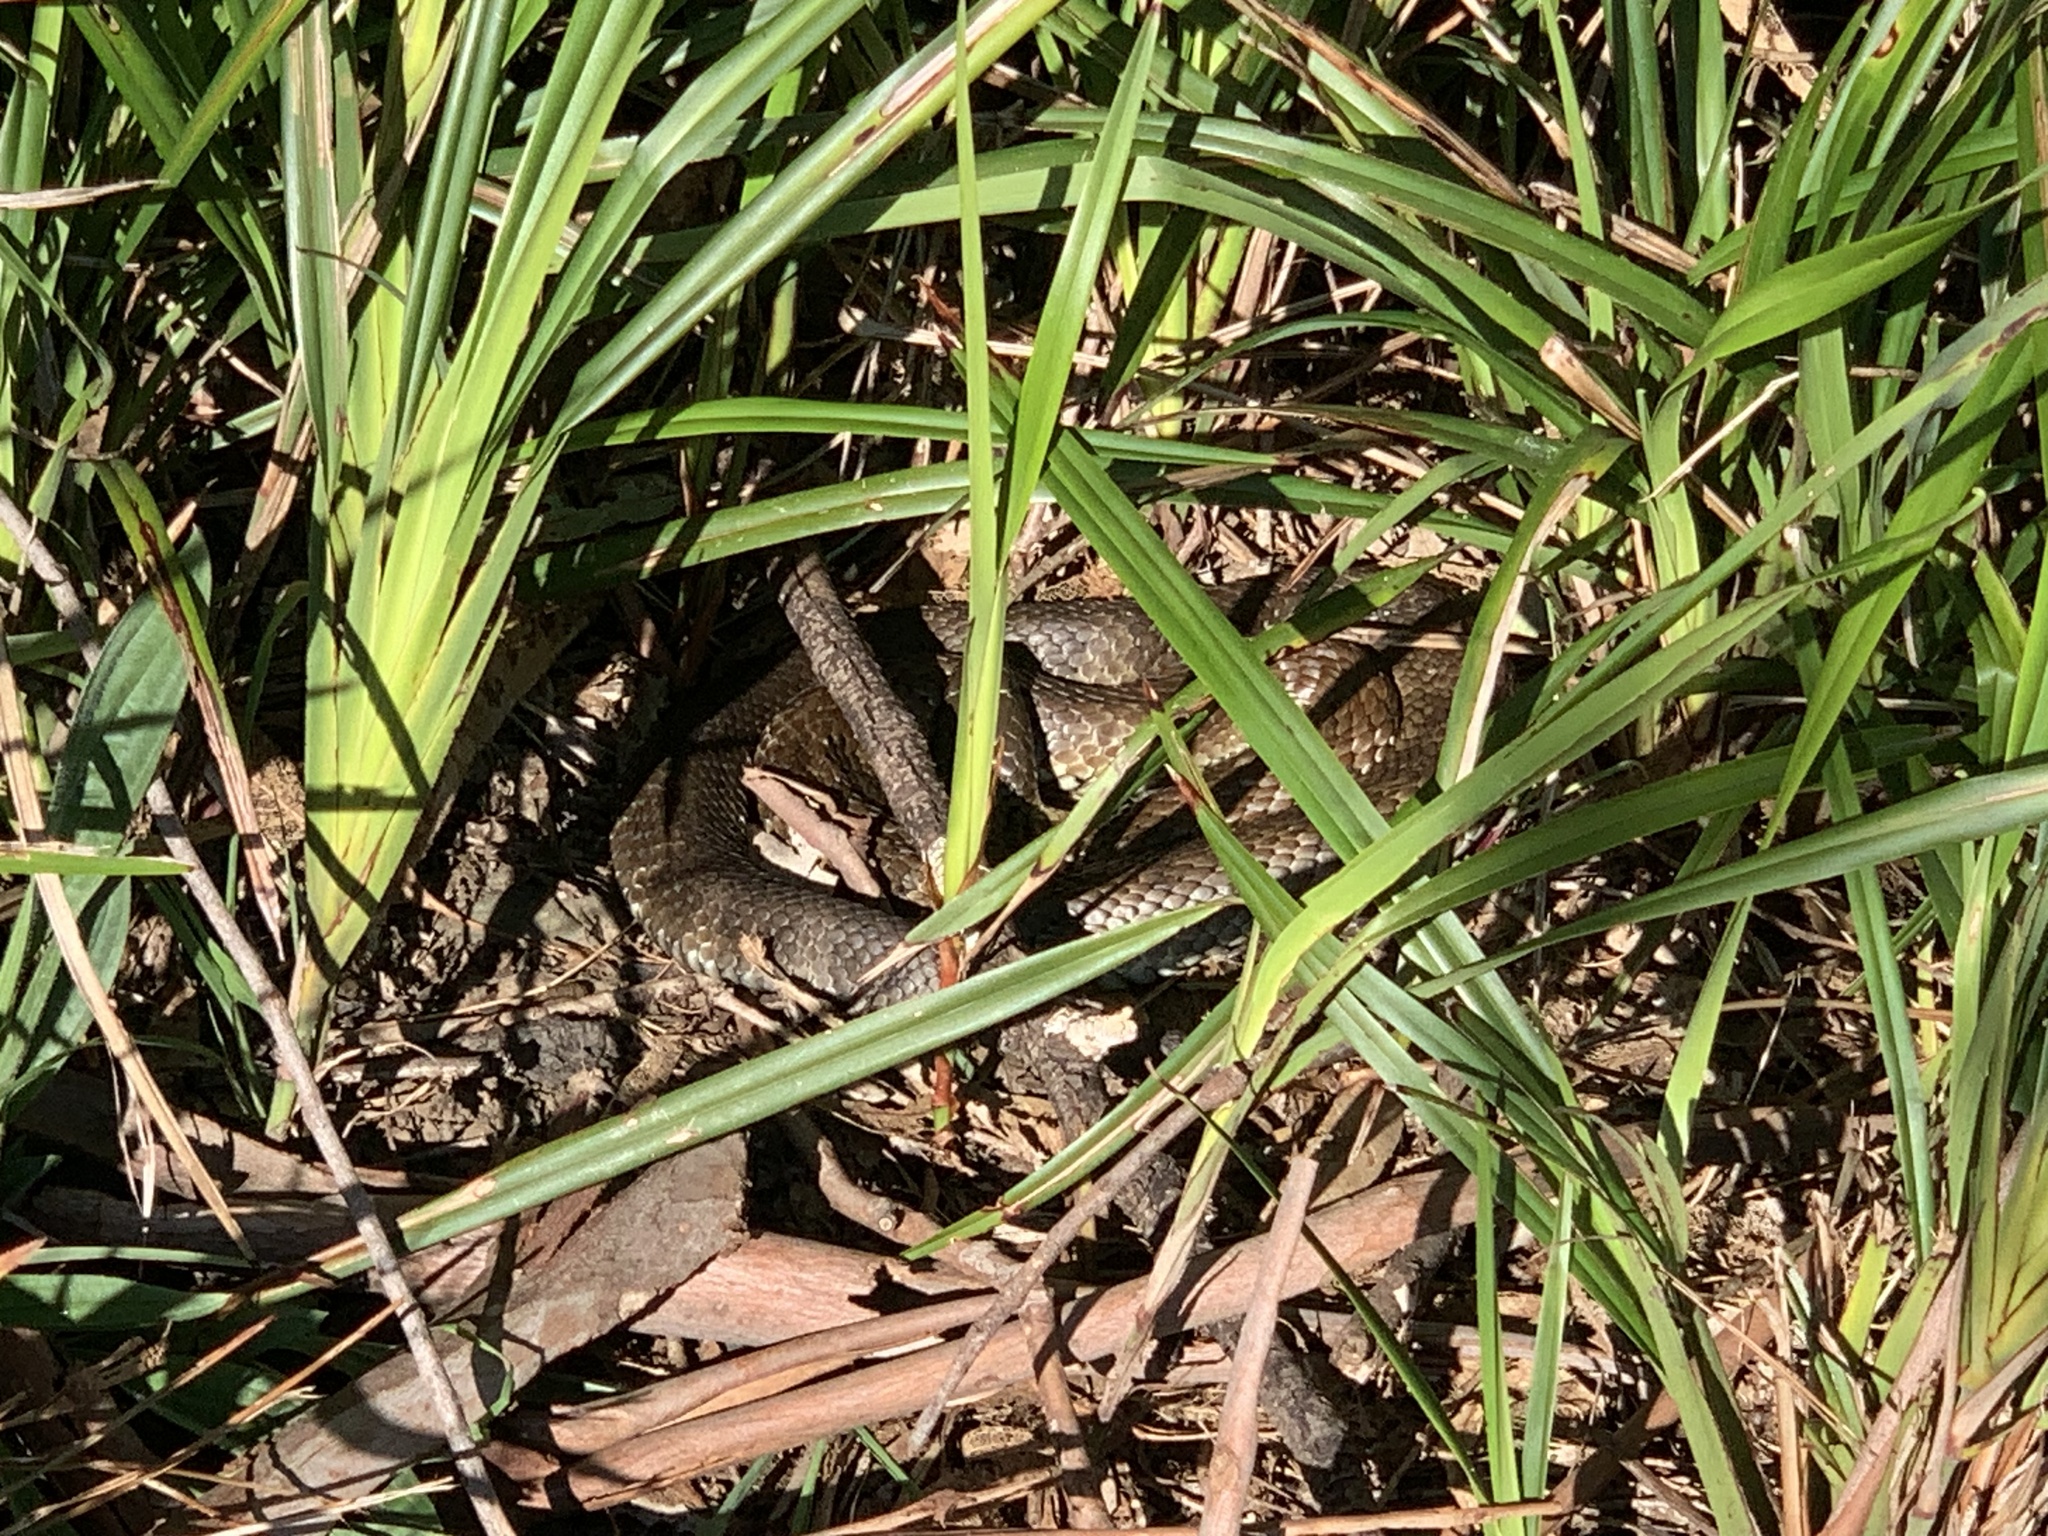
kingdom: Animalia
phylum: Chordata
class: Squamata
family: Elapidae
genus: Notechis
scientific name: Notechis scutatus
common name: Mainland tiger snake
